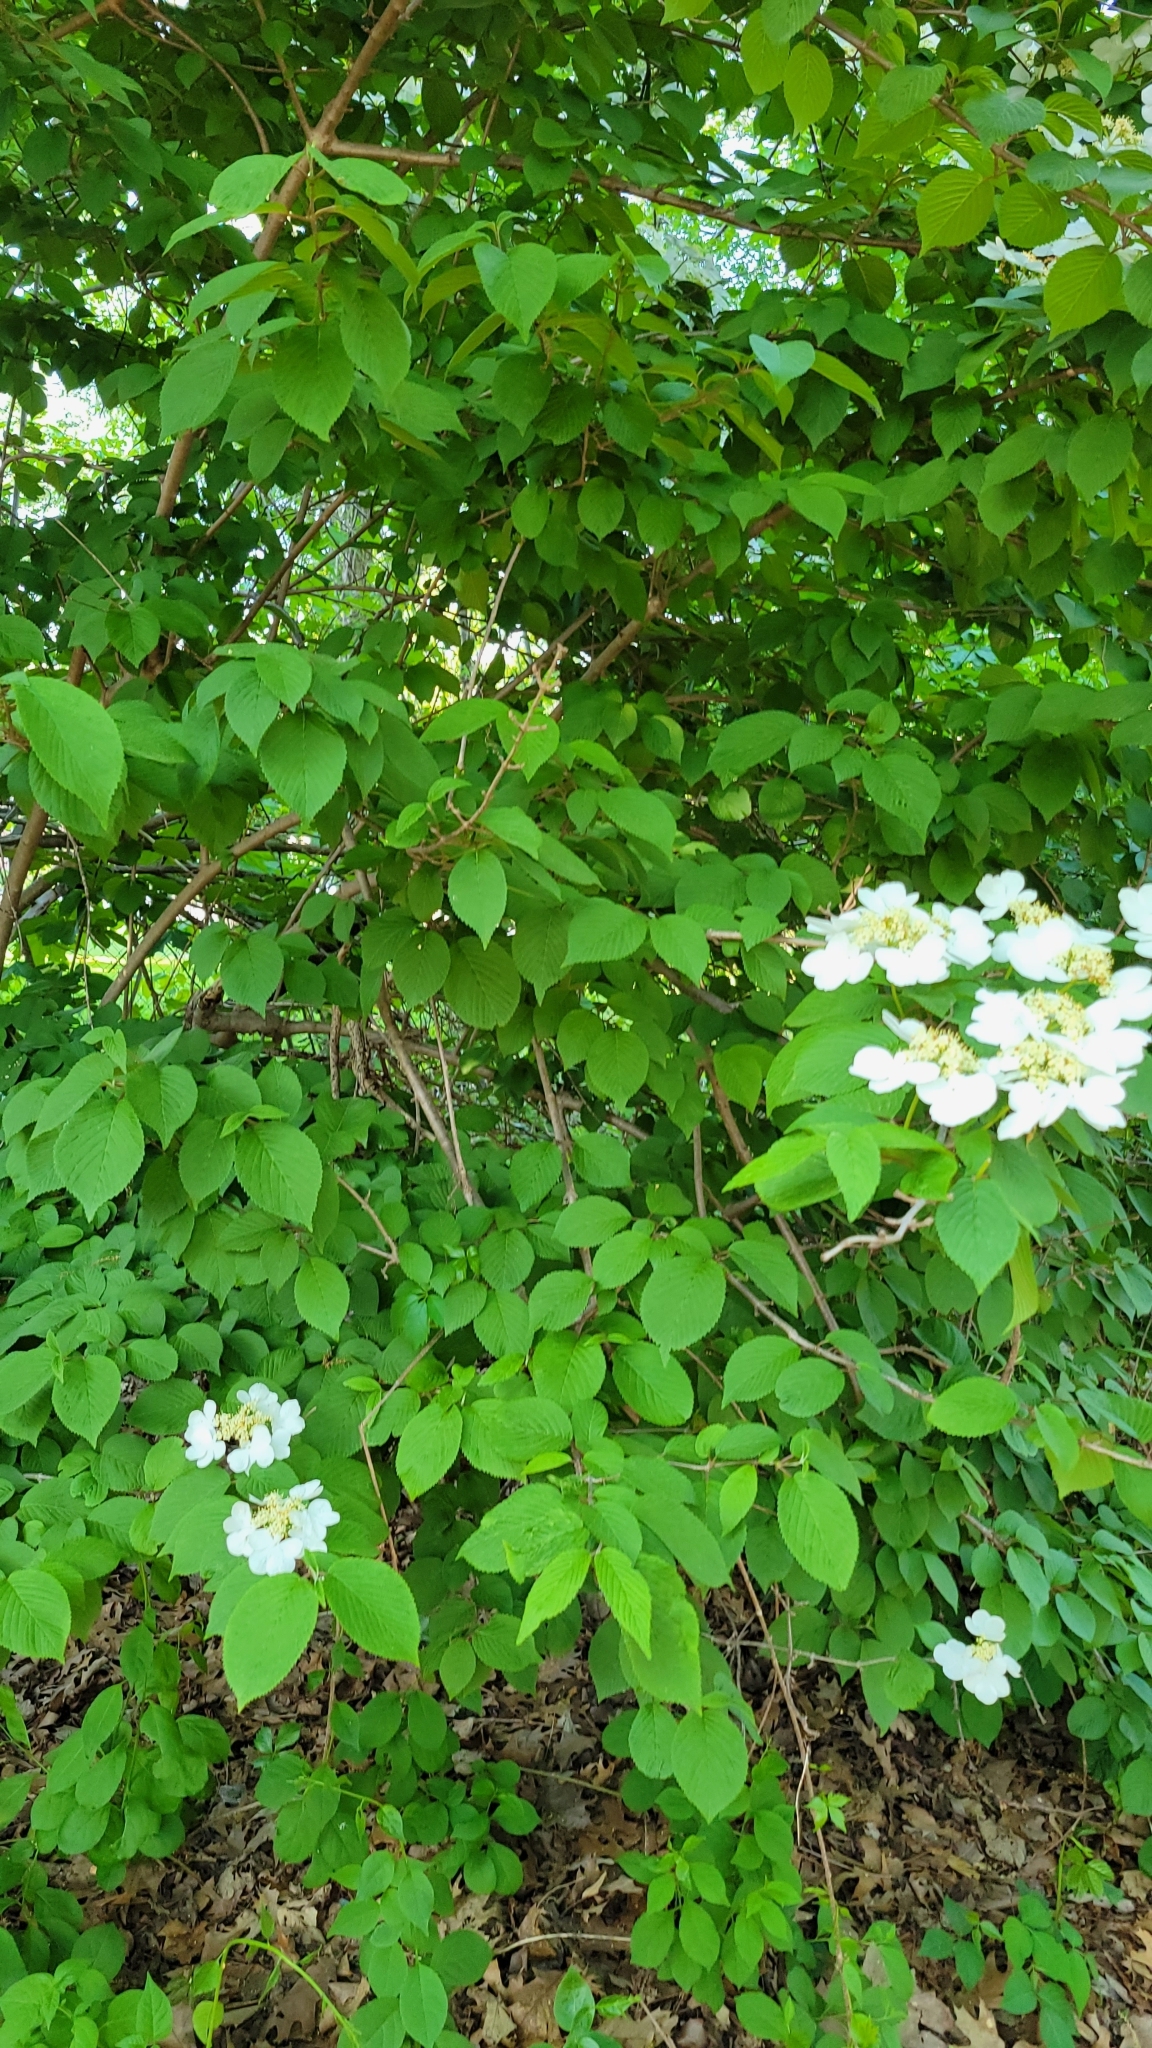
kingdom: Plantae
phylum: Tracheophyta
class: Magnoliopsida
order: Rosales
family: Rosaceae
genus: Rosa
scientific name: Rosa multiflora
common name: Multiflora rose
